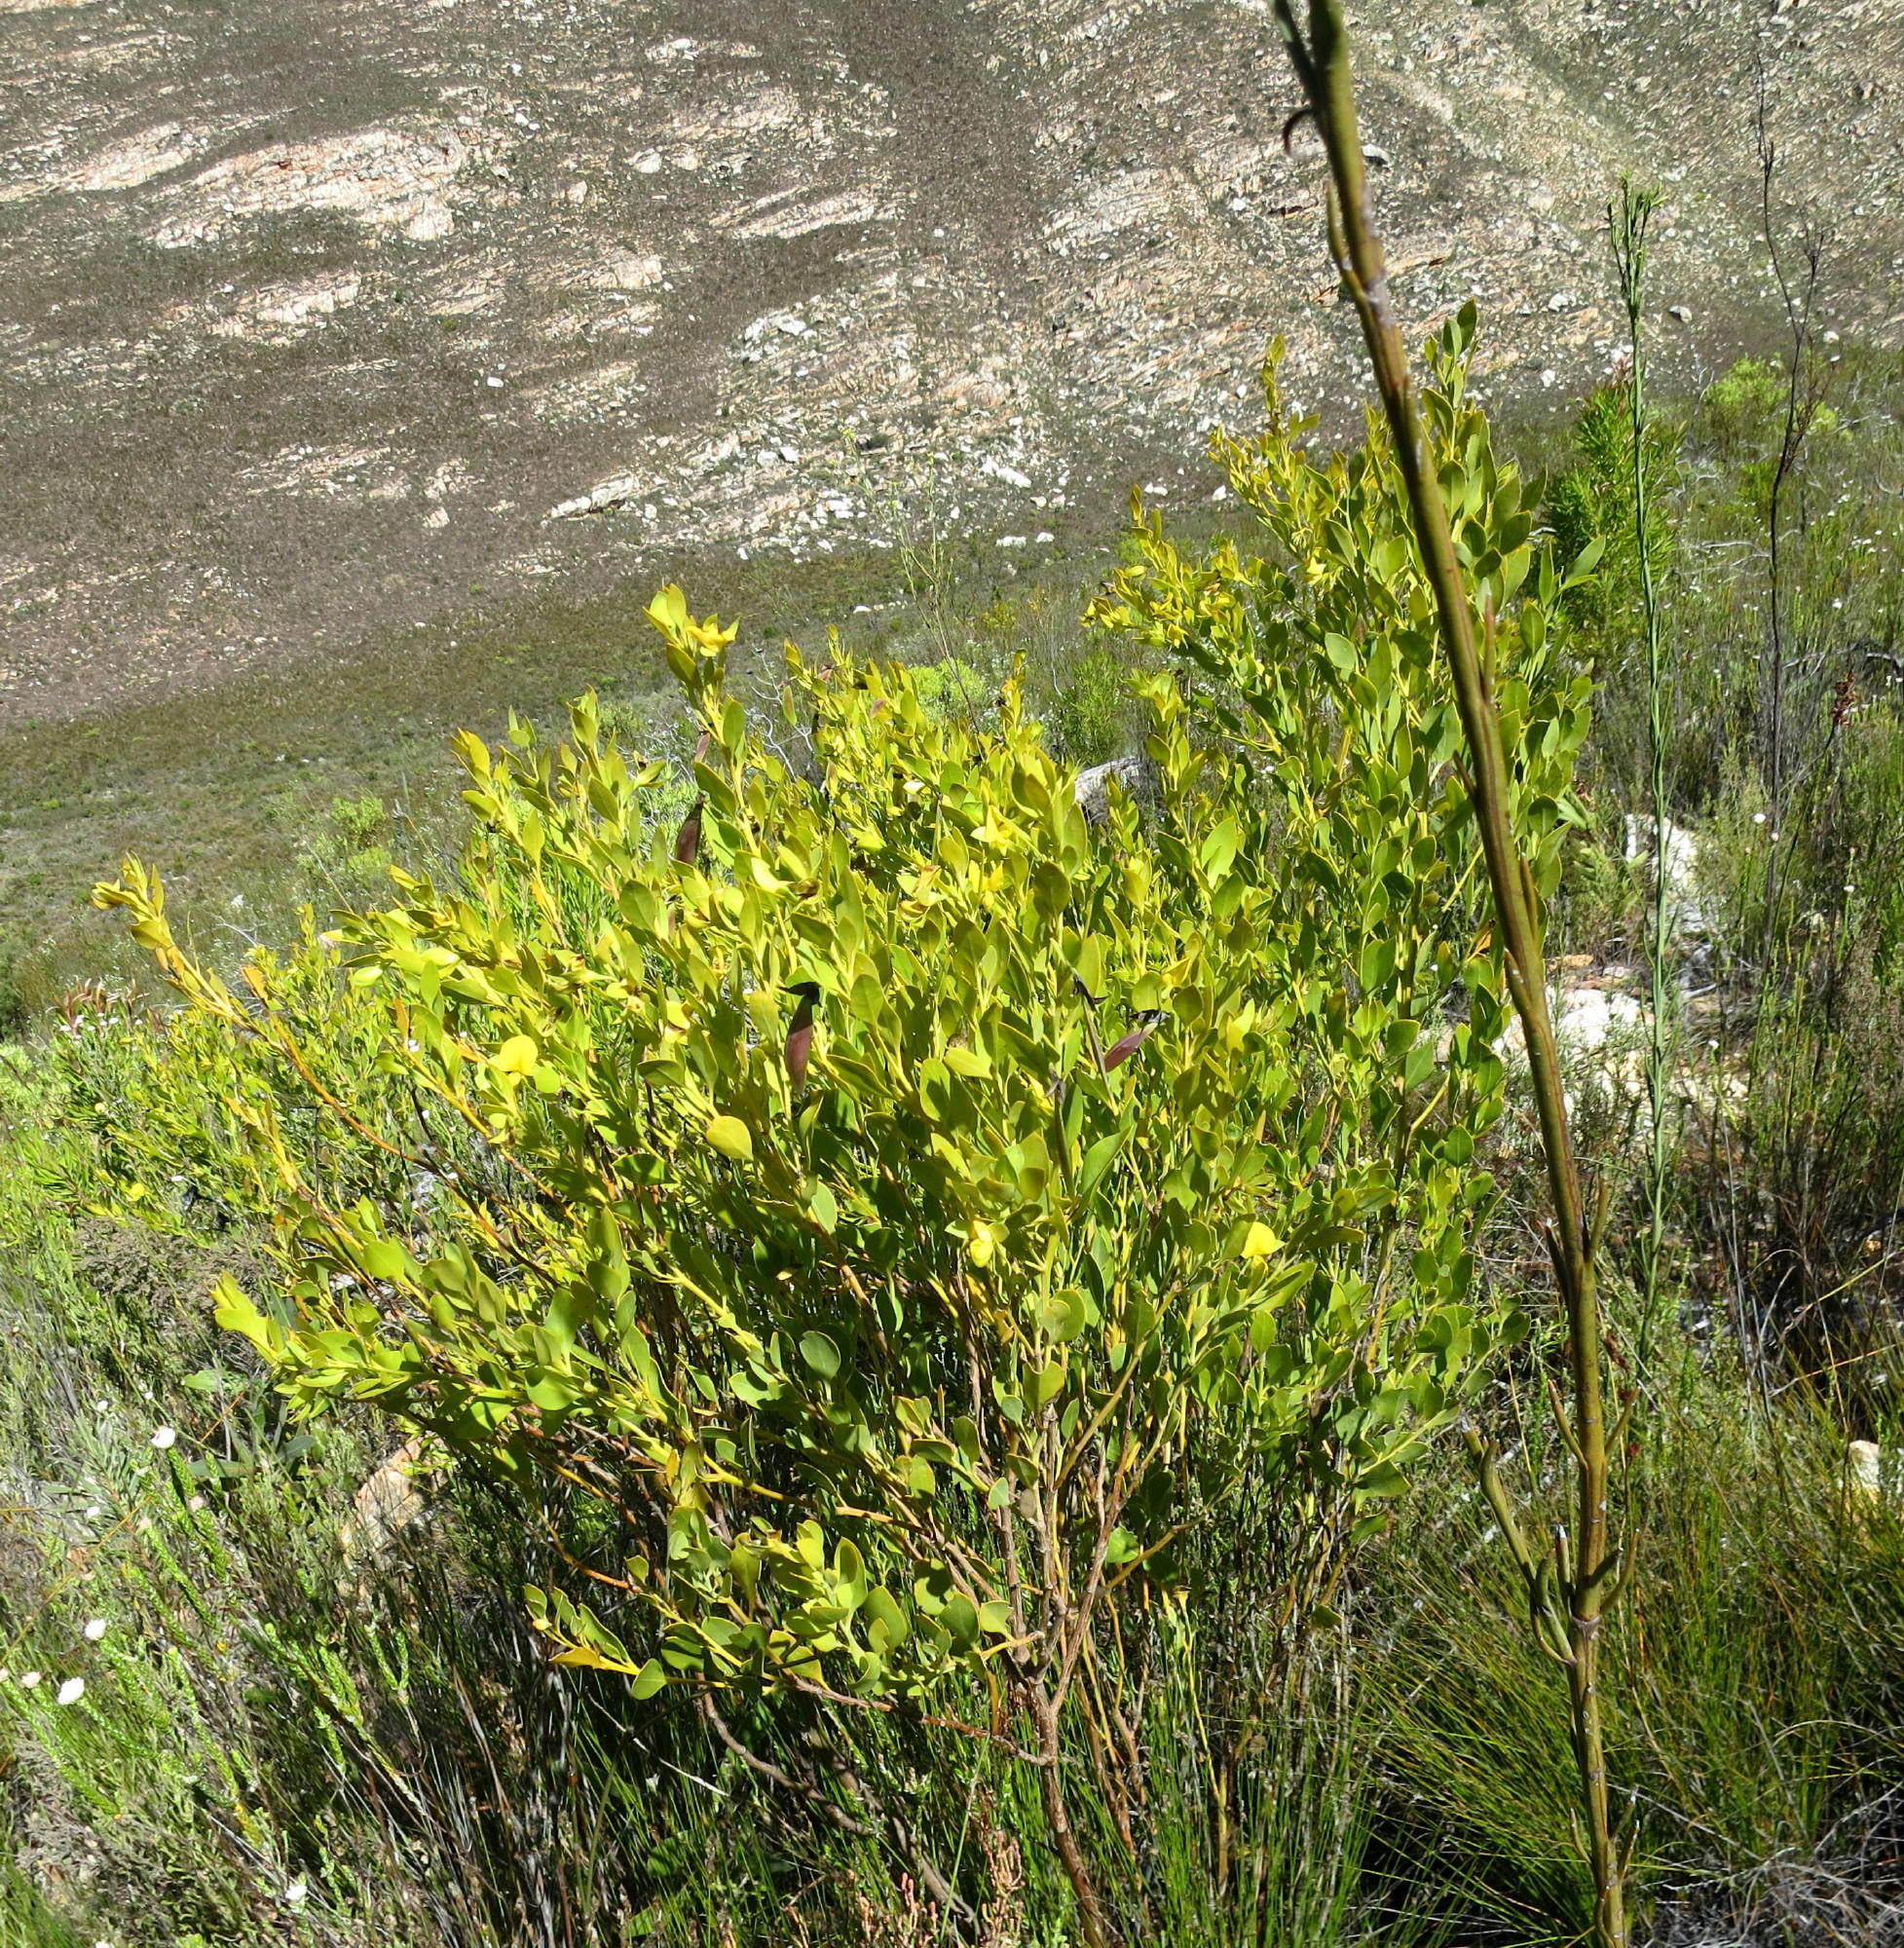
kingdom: Plantae
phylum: Tracheophyta
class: Magnoliopsida
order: Fabales
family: Fabaceae
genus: Rafnia
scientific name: Rafnia vlokii
